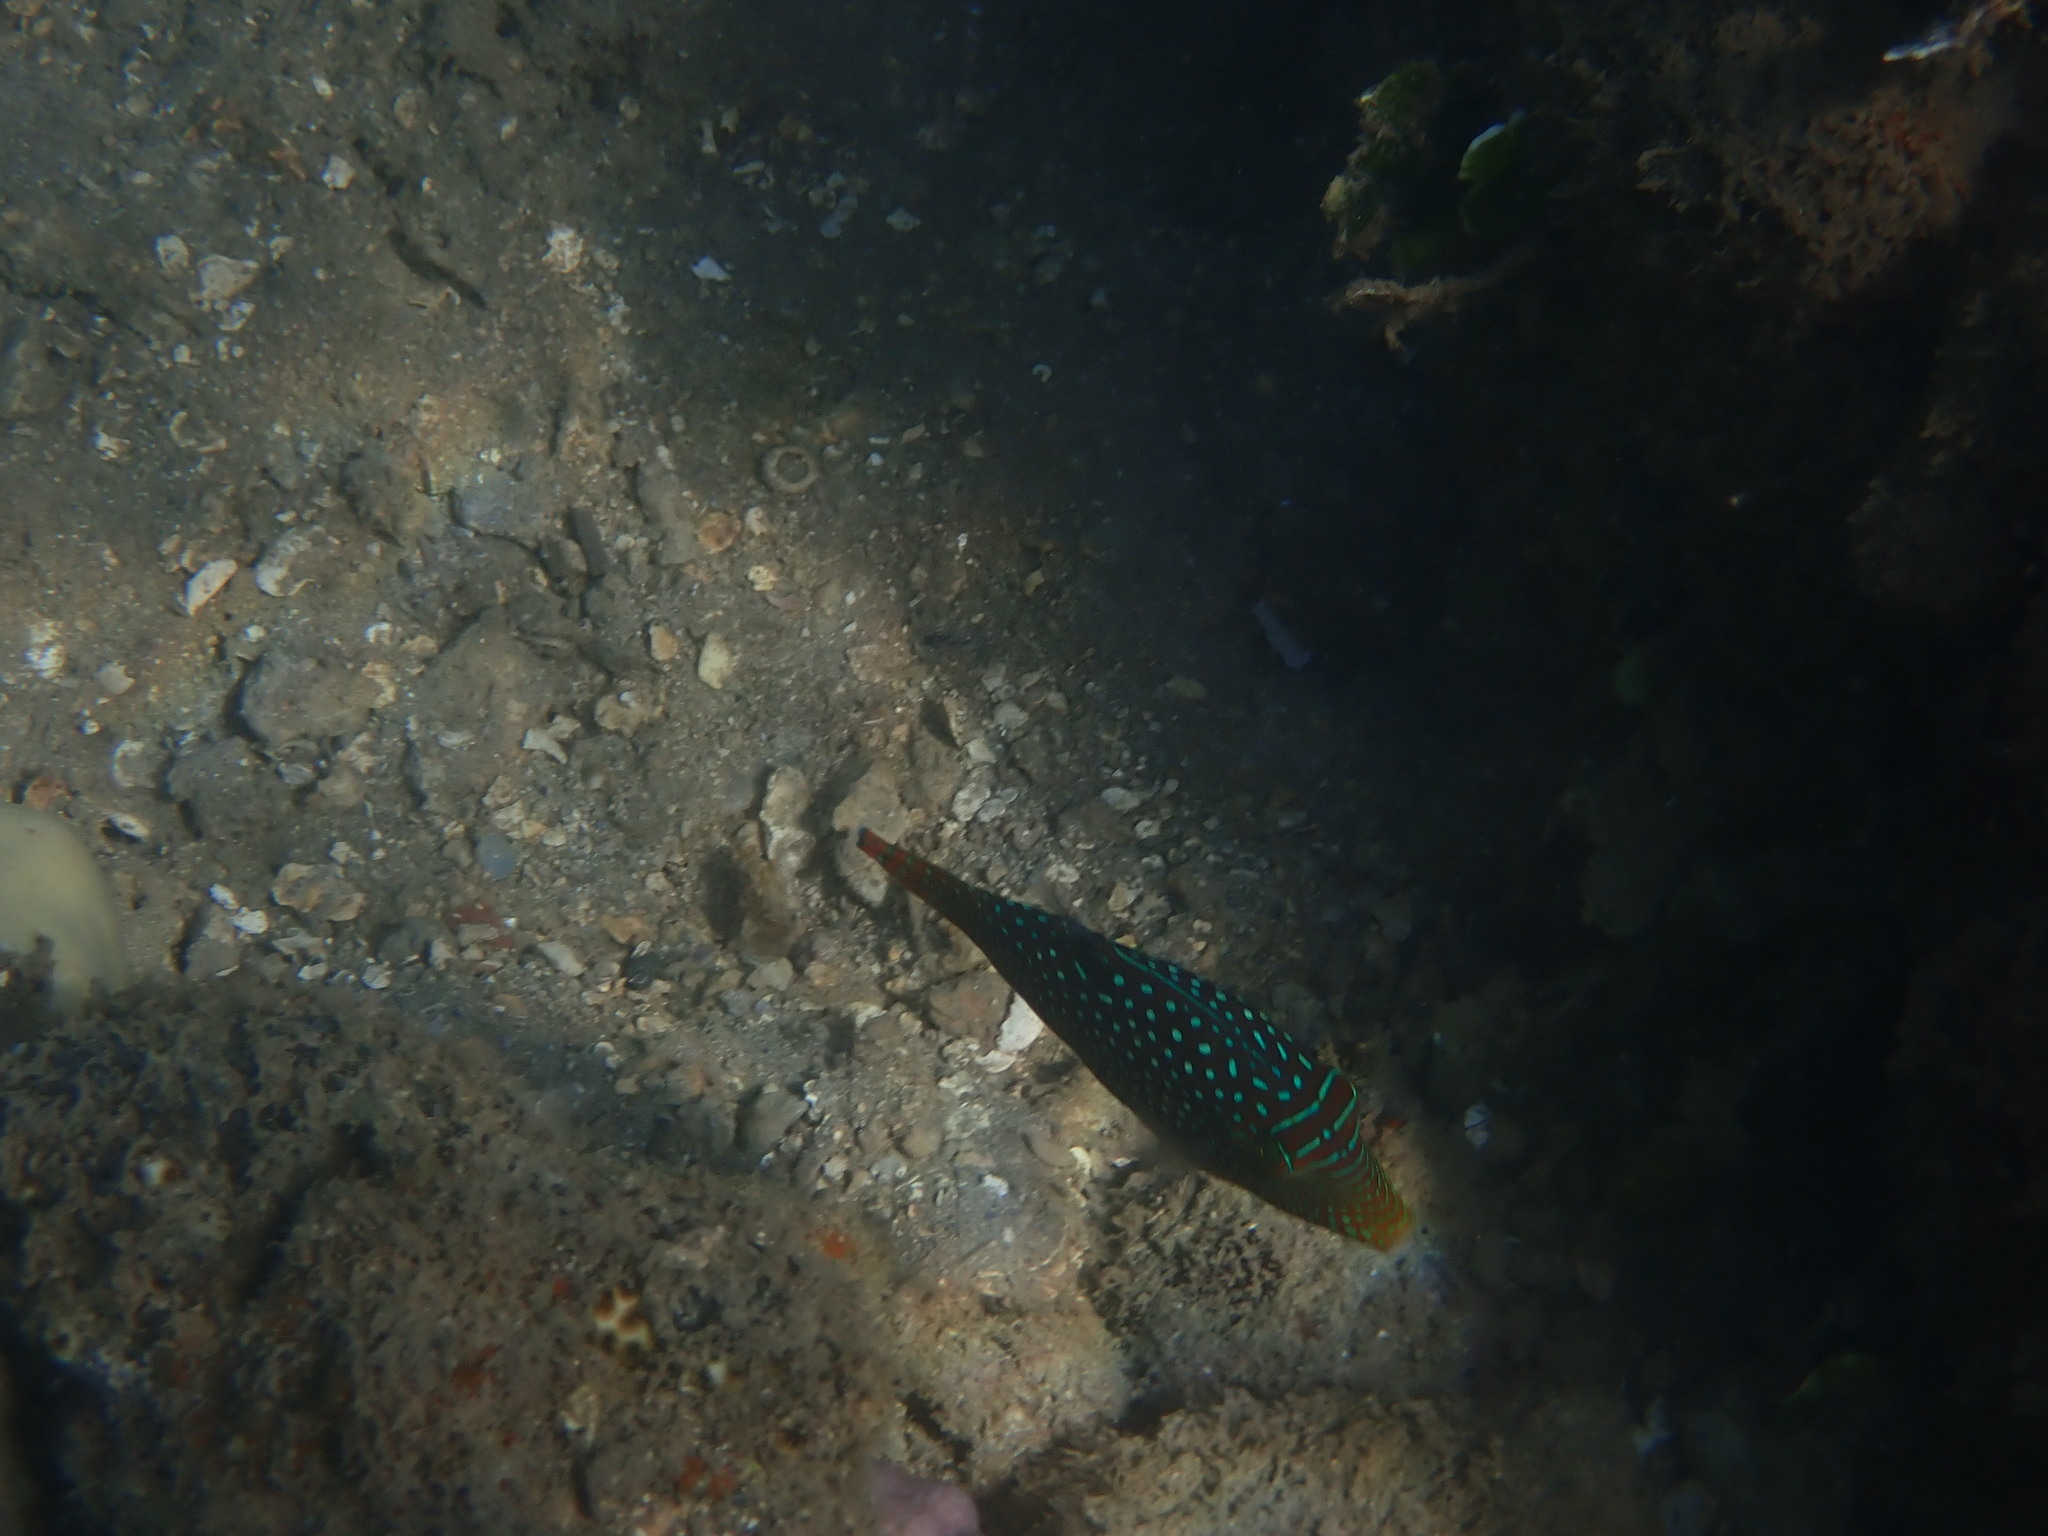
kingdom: Animalia
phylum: Chordata
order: Tetraodontiformes
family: Tetraodontidae
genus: Canthigaster
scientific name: Canthigaster solandri
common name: False-eye toby
